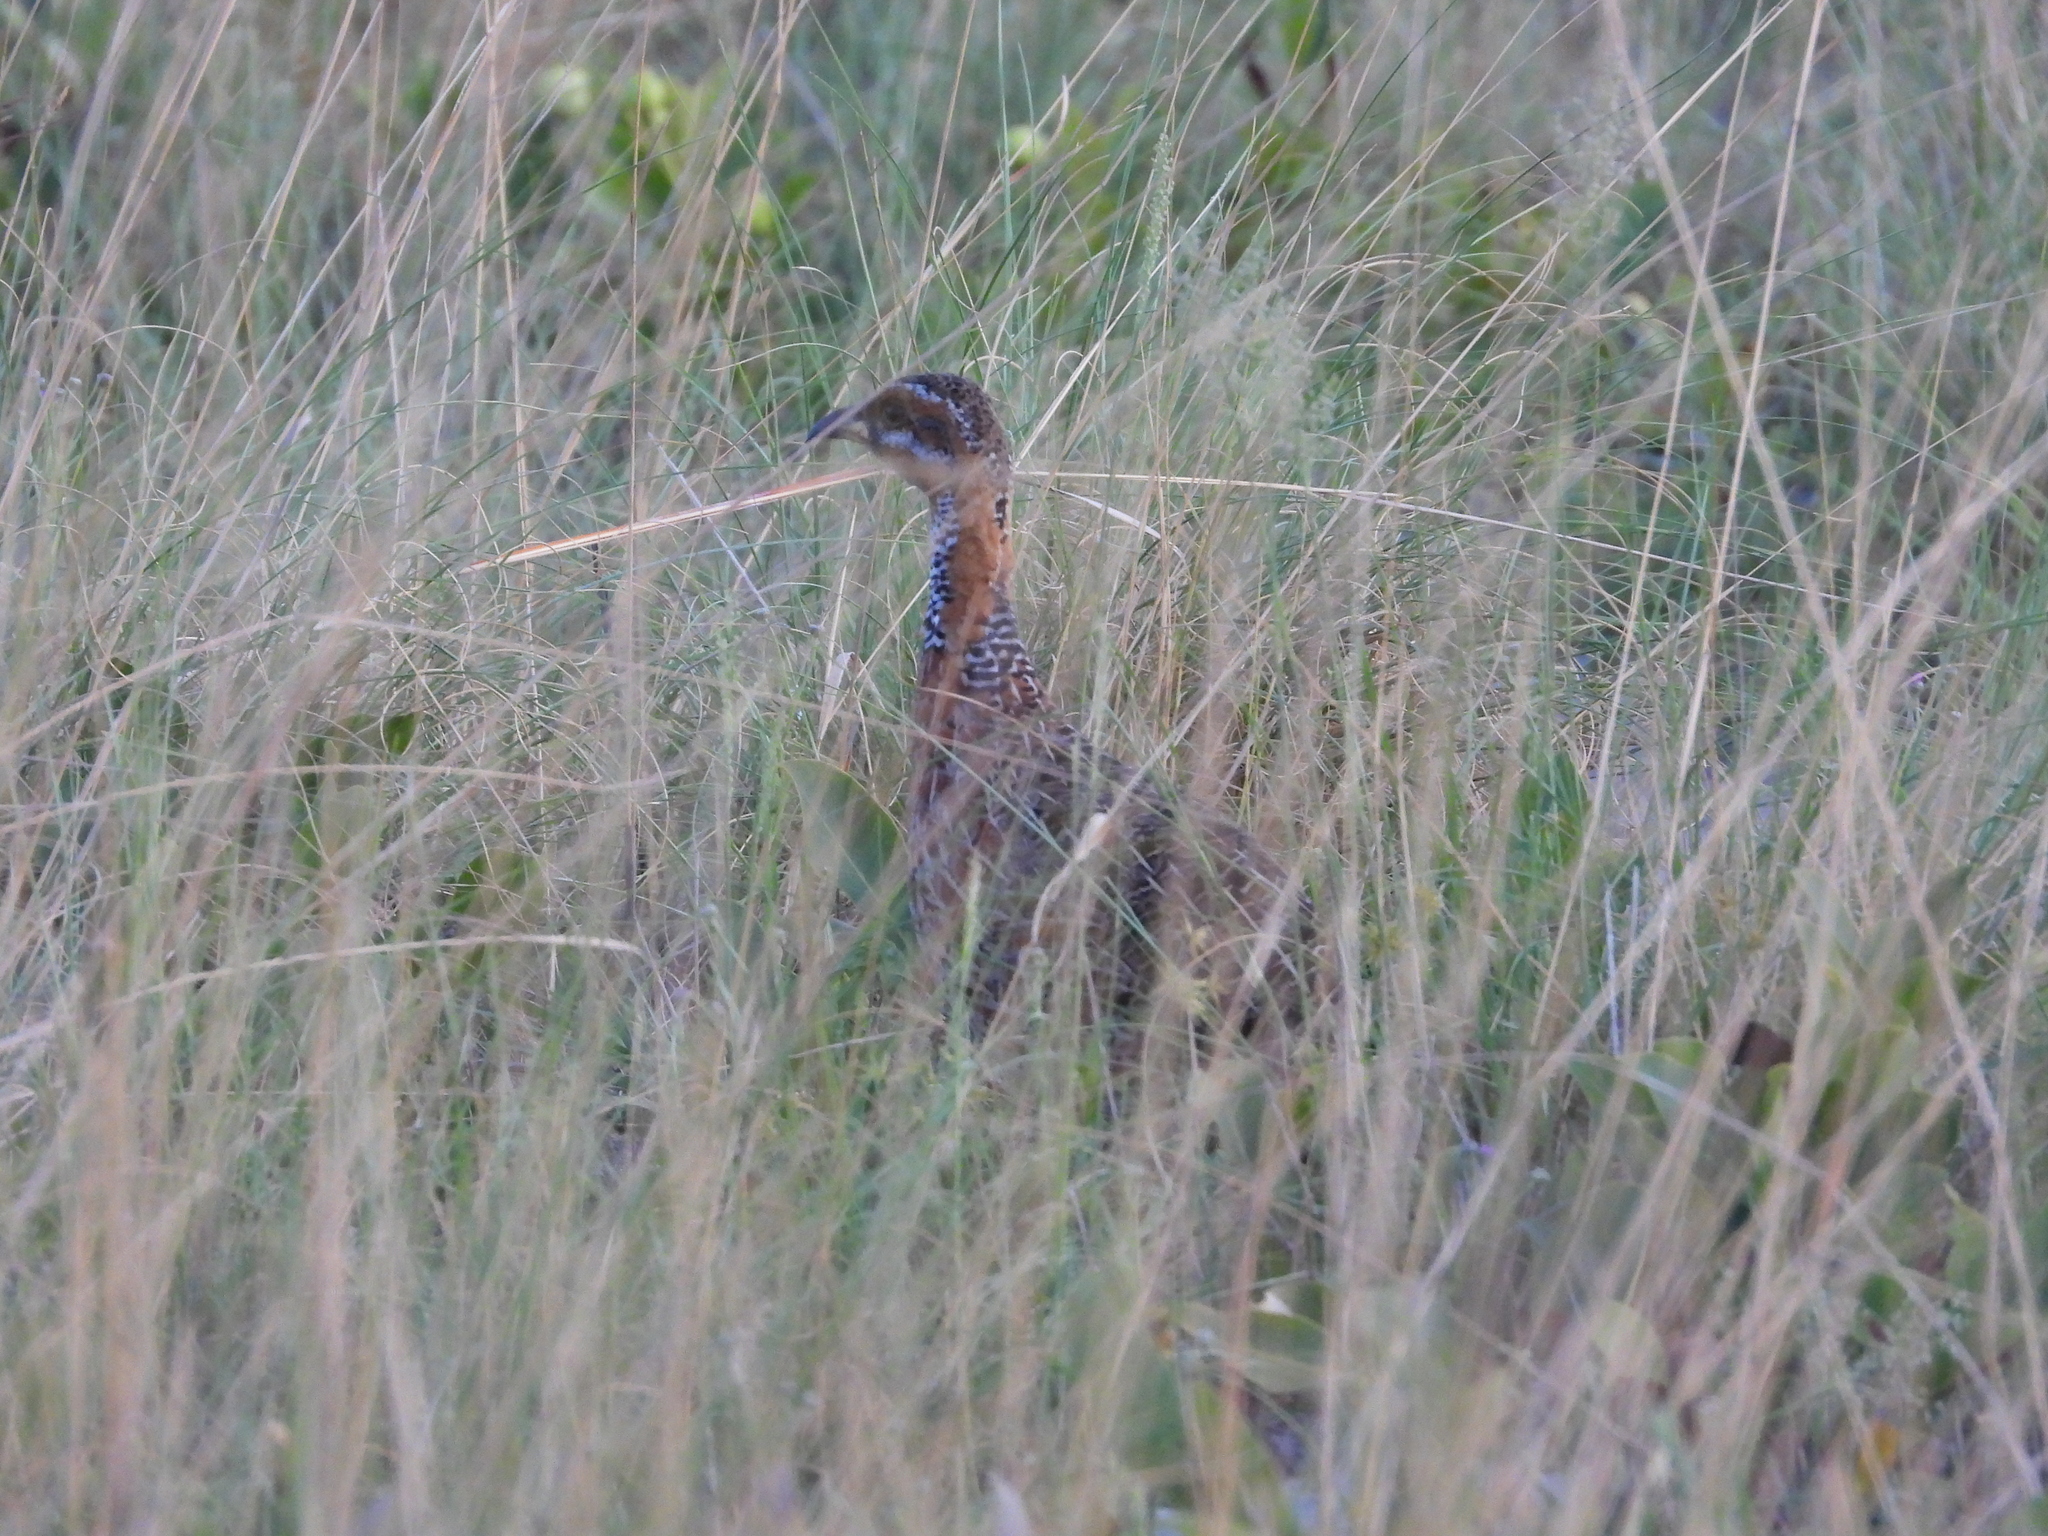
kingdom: Animalia
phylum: Chordata
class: Aves
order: Galliformes
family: Phasianidae
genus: Scleroptila
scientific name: Scleroptila levaillantii
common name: Red-winged francolin
